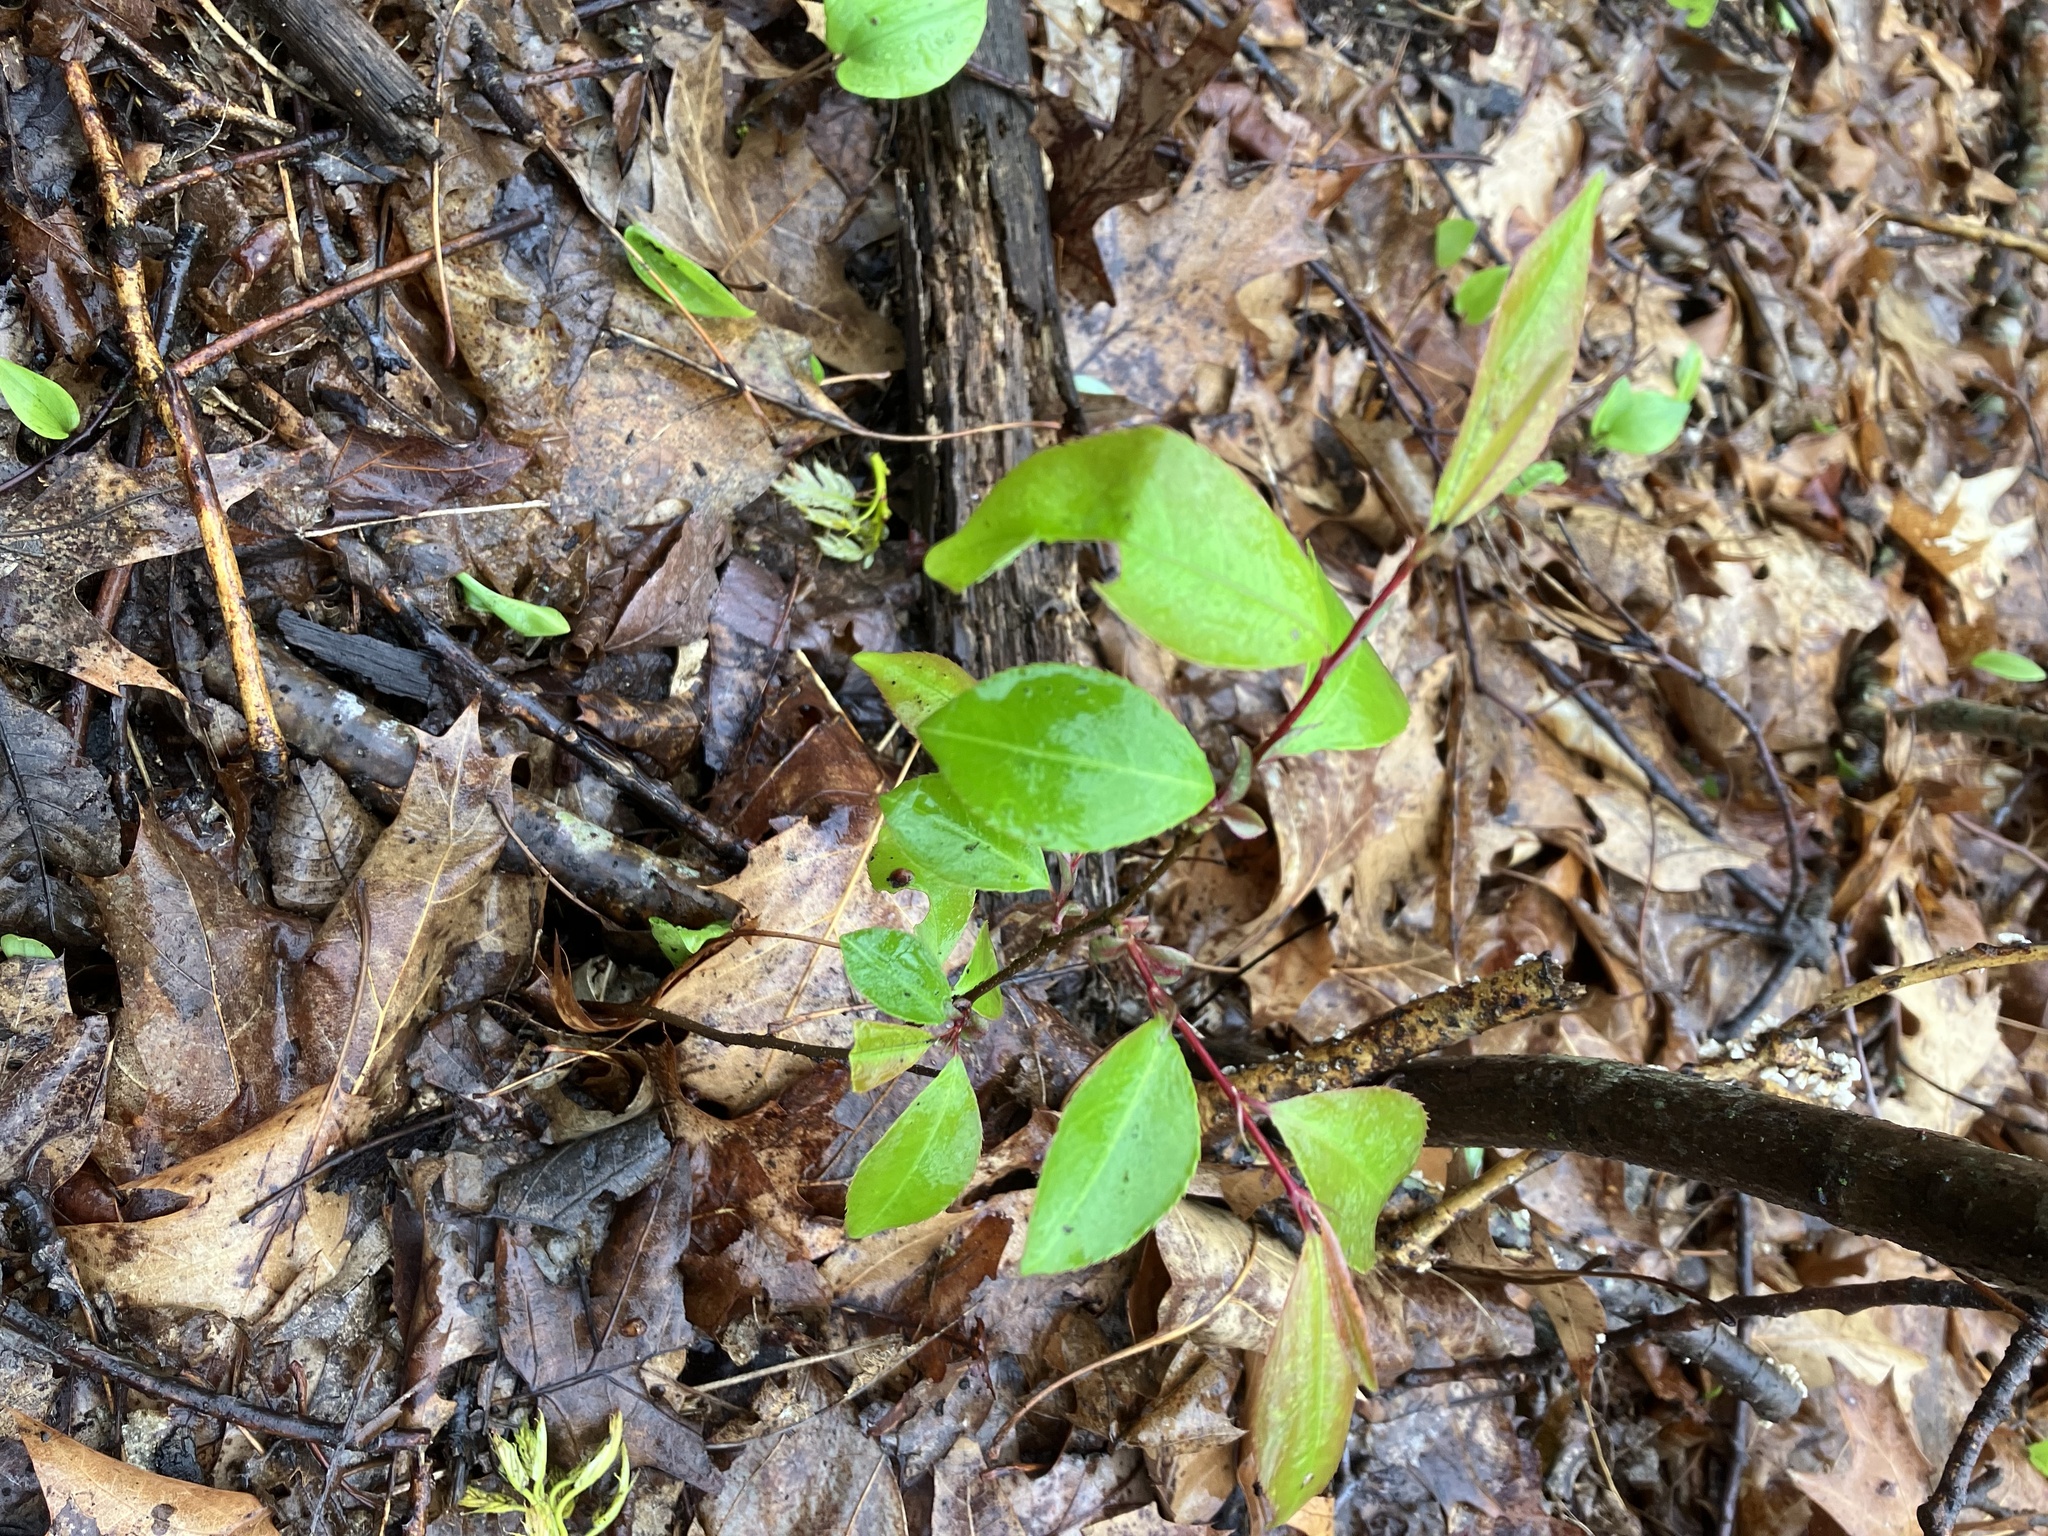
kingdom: Plantae
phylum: Tracheophyta
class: Magnoliopsida
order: Rosales
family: Rosaceae
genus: Prunus
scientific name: Prunus serotina
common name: Black cherry
